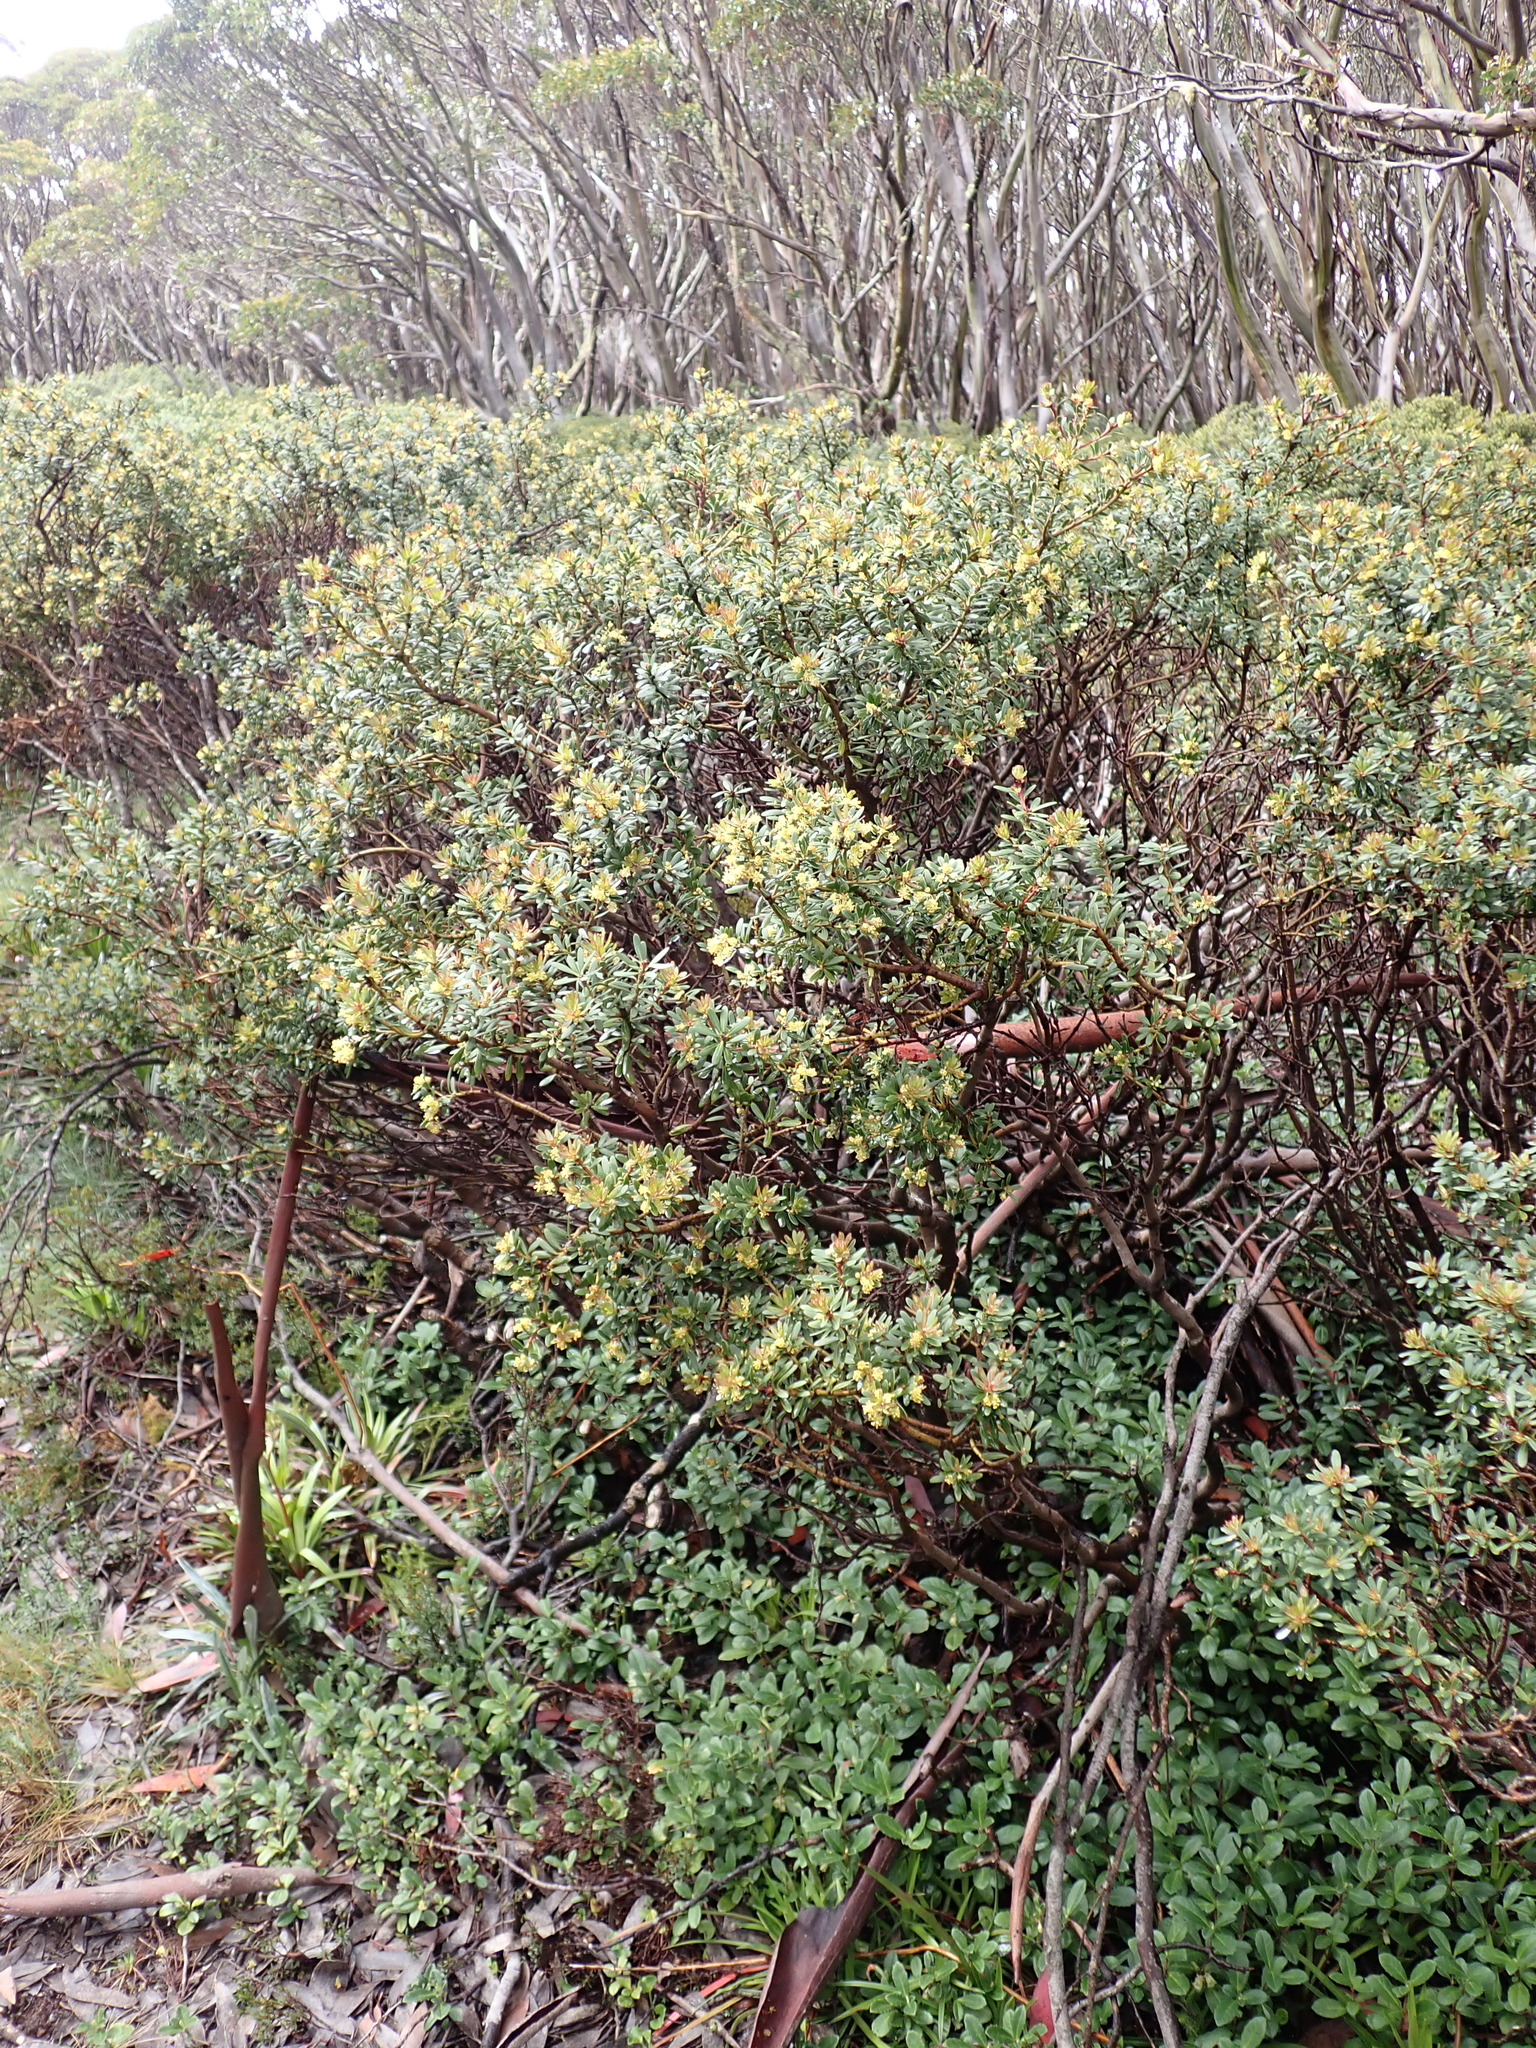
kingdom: Plantae
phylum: Tracheophyta
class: Magnoliopsida
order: Canellales
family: Winteraceae
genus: Drimys
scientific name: Drimys vickeriana
